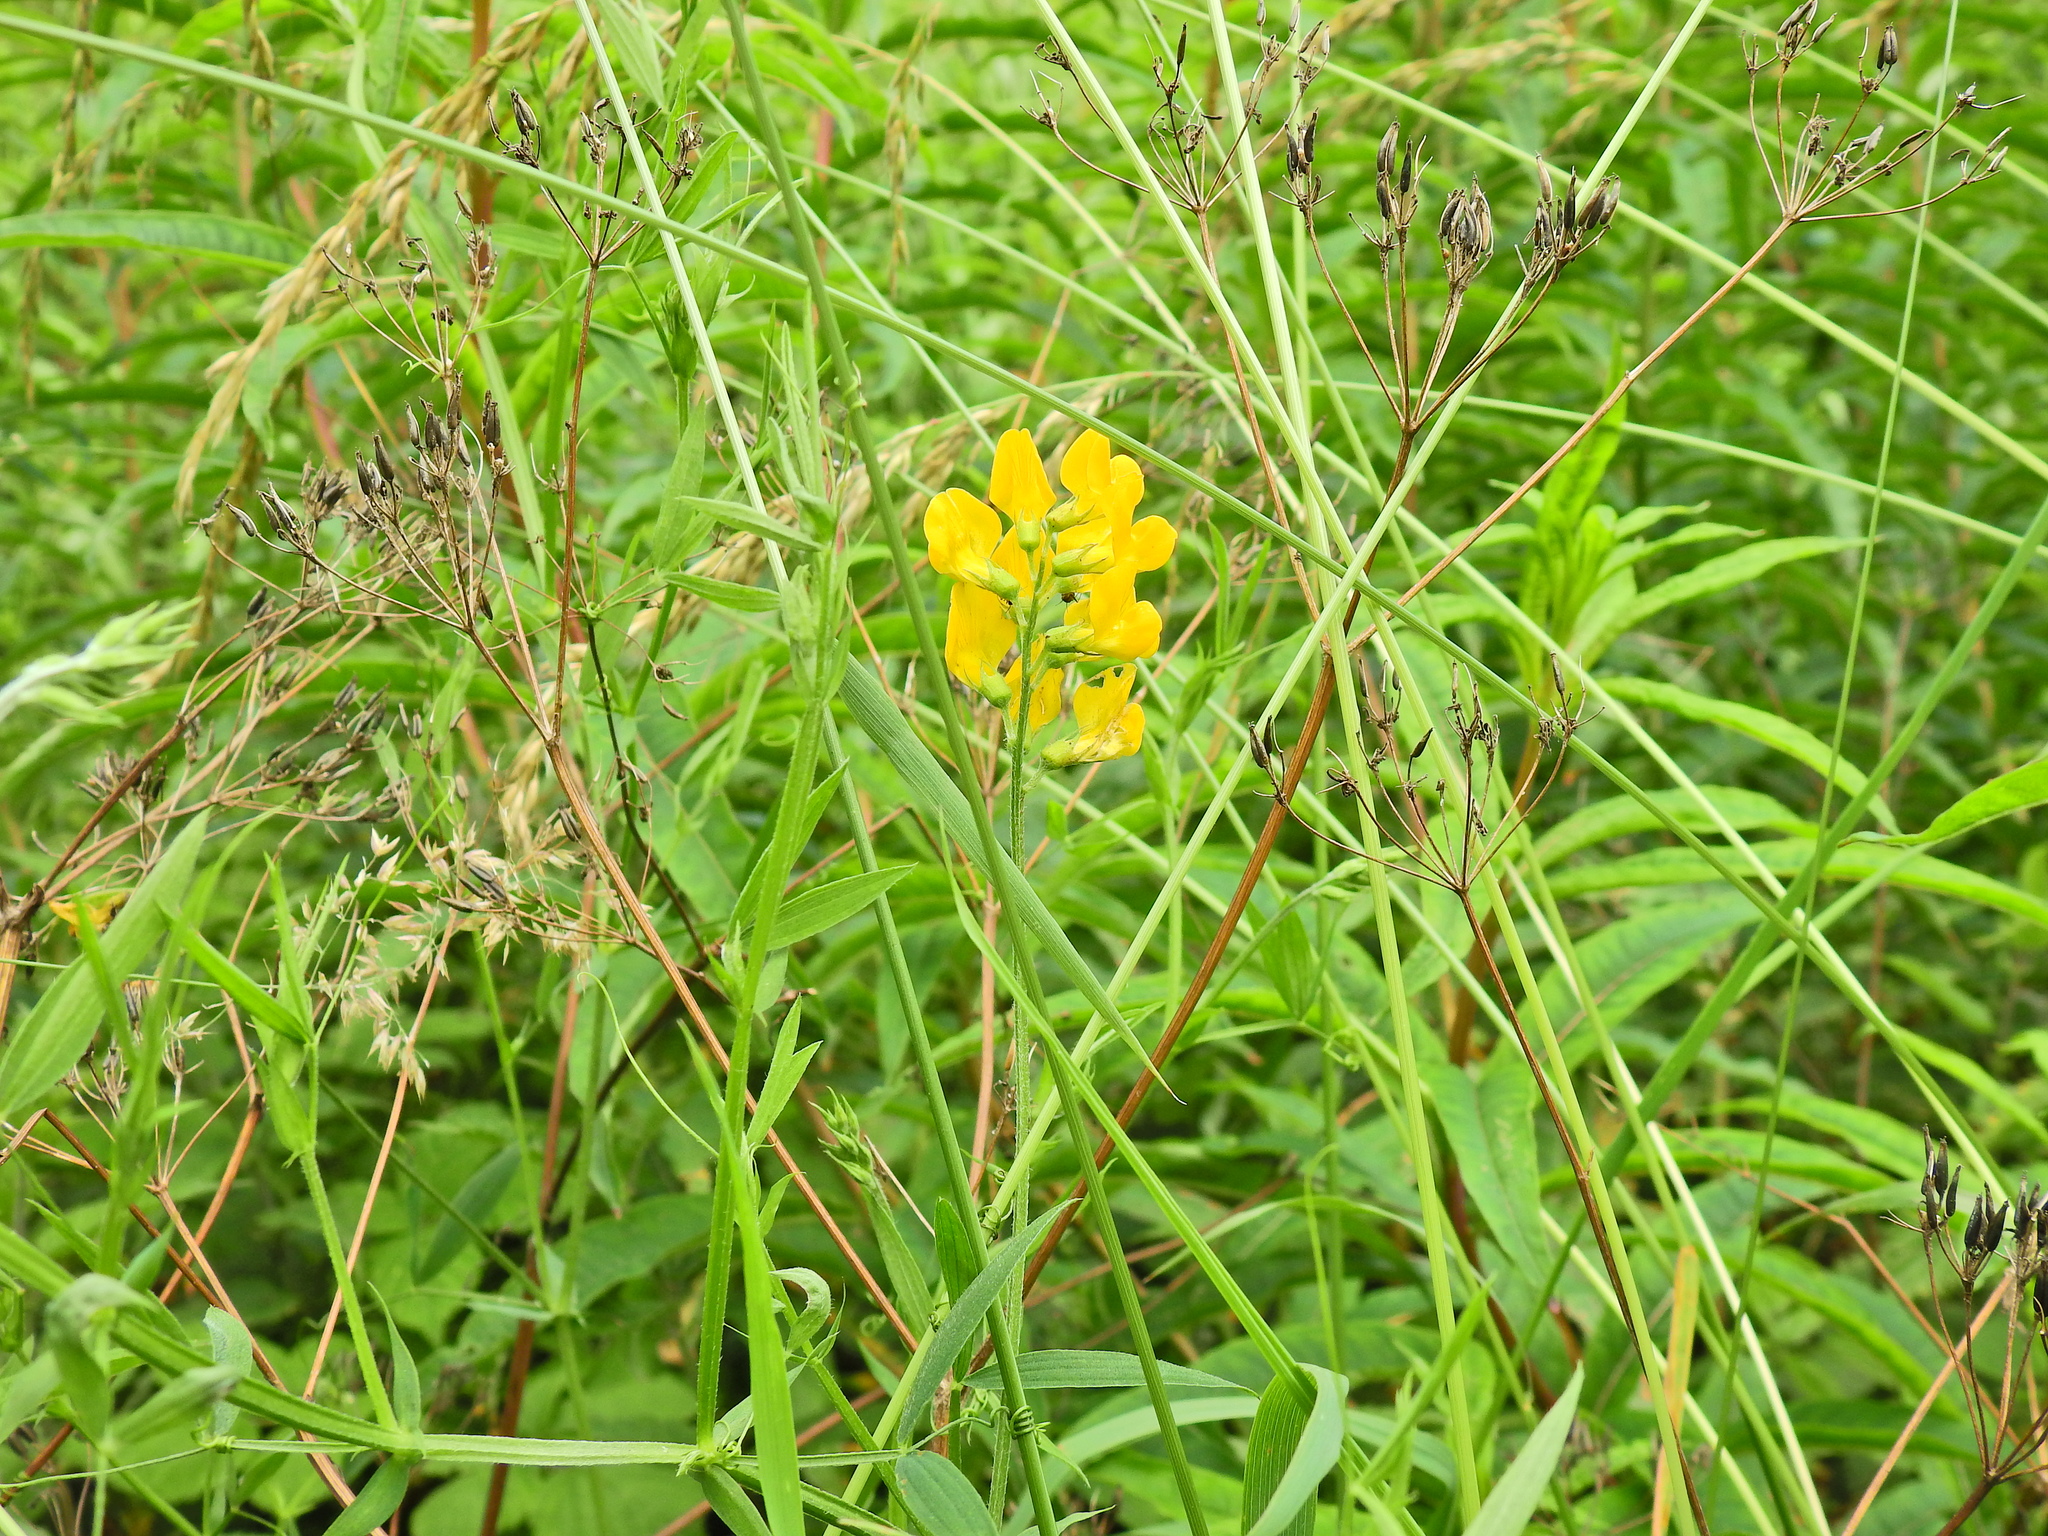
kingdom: Plantae
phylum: Tracheophyta
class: Magnoliopsida
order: Fabales
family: Fabaceae
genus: Lathyrus
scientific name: Lathyrus pratensis
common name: Meadow vetchling
